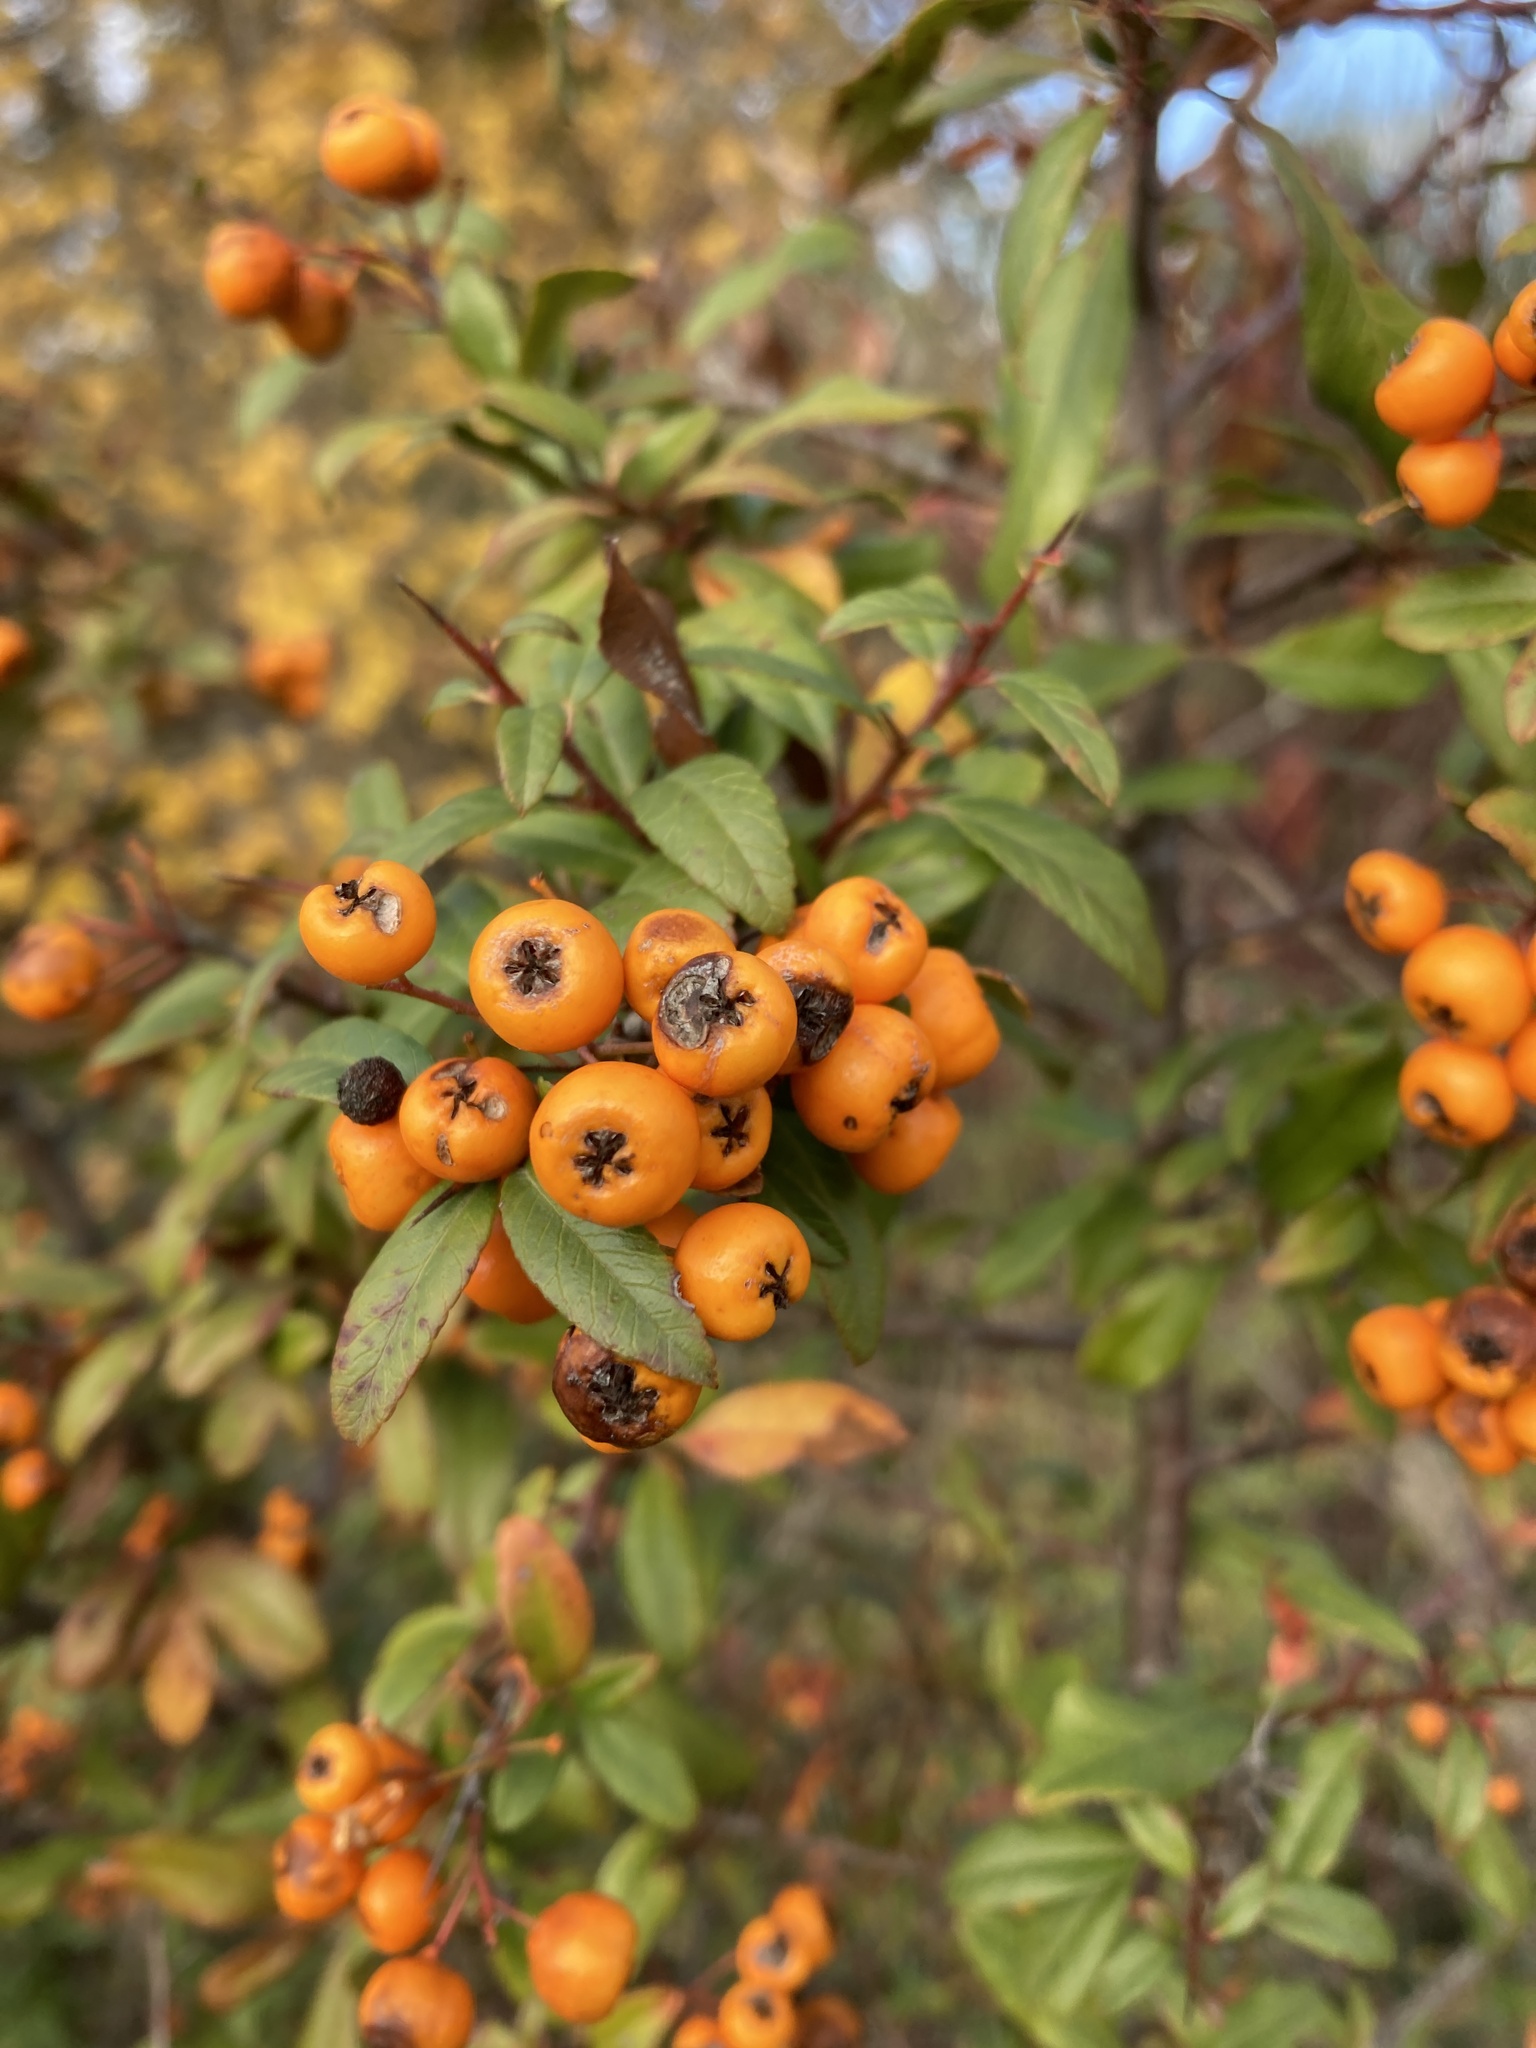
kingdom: Plantae
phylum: Tracheophyta
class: Magnoliopsida
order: Rosales
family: Rosaceae
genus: Pyracantha
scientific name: Pyracantha coccinea
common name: Firethorn
